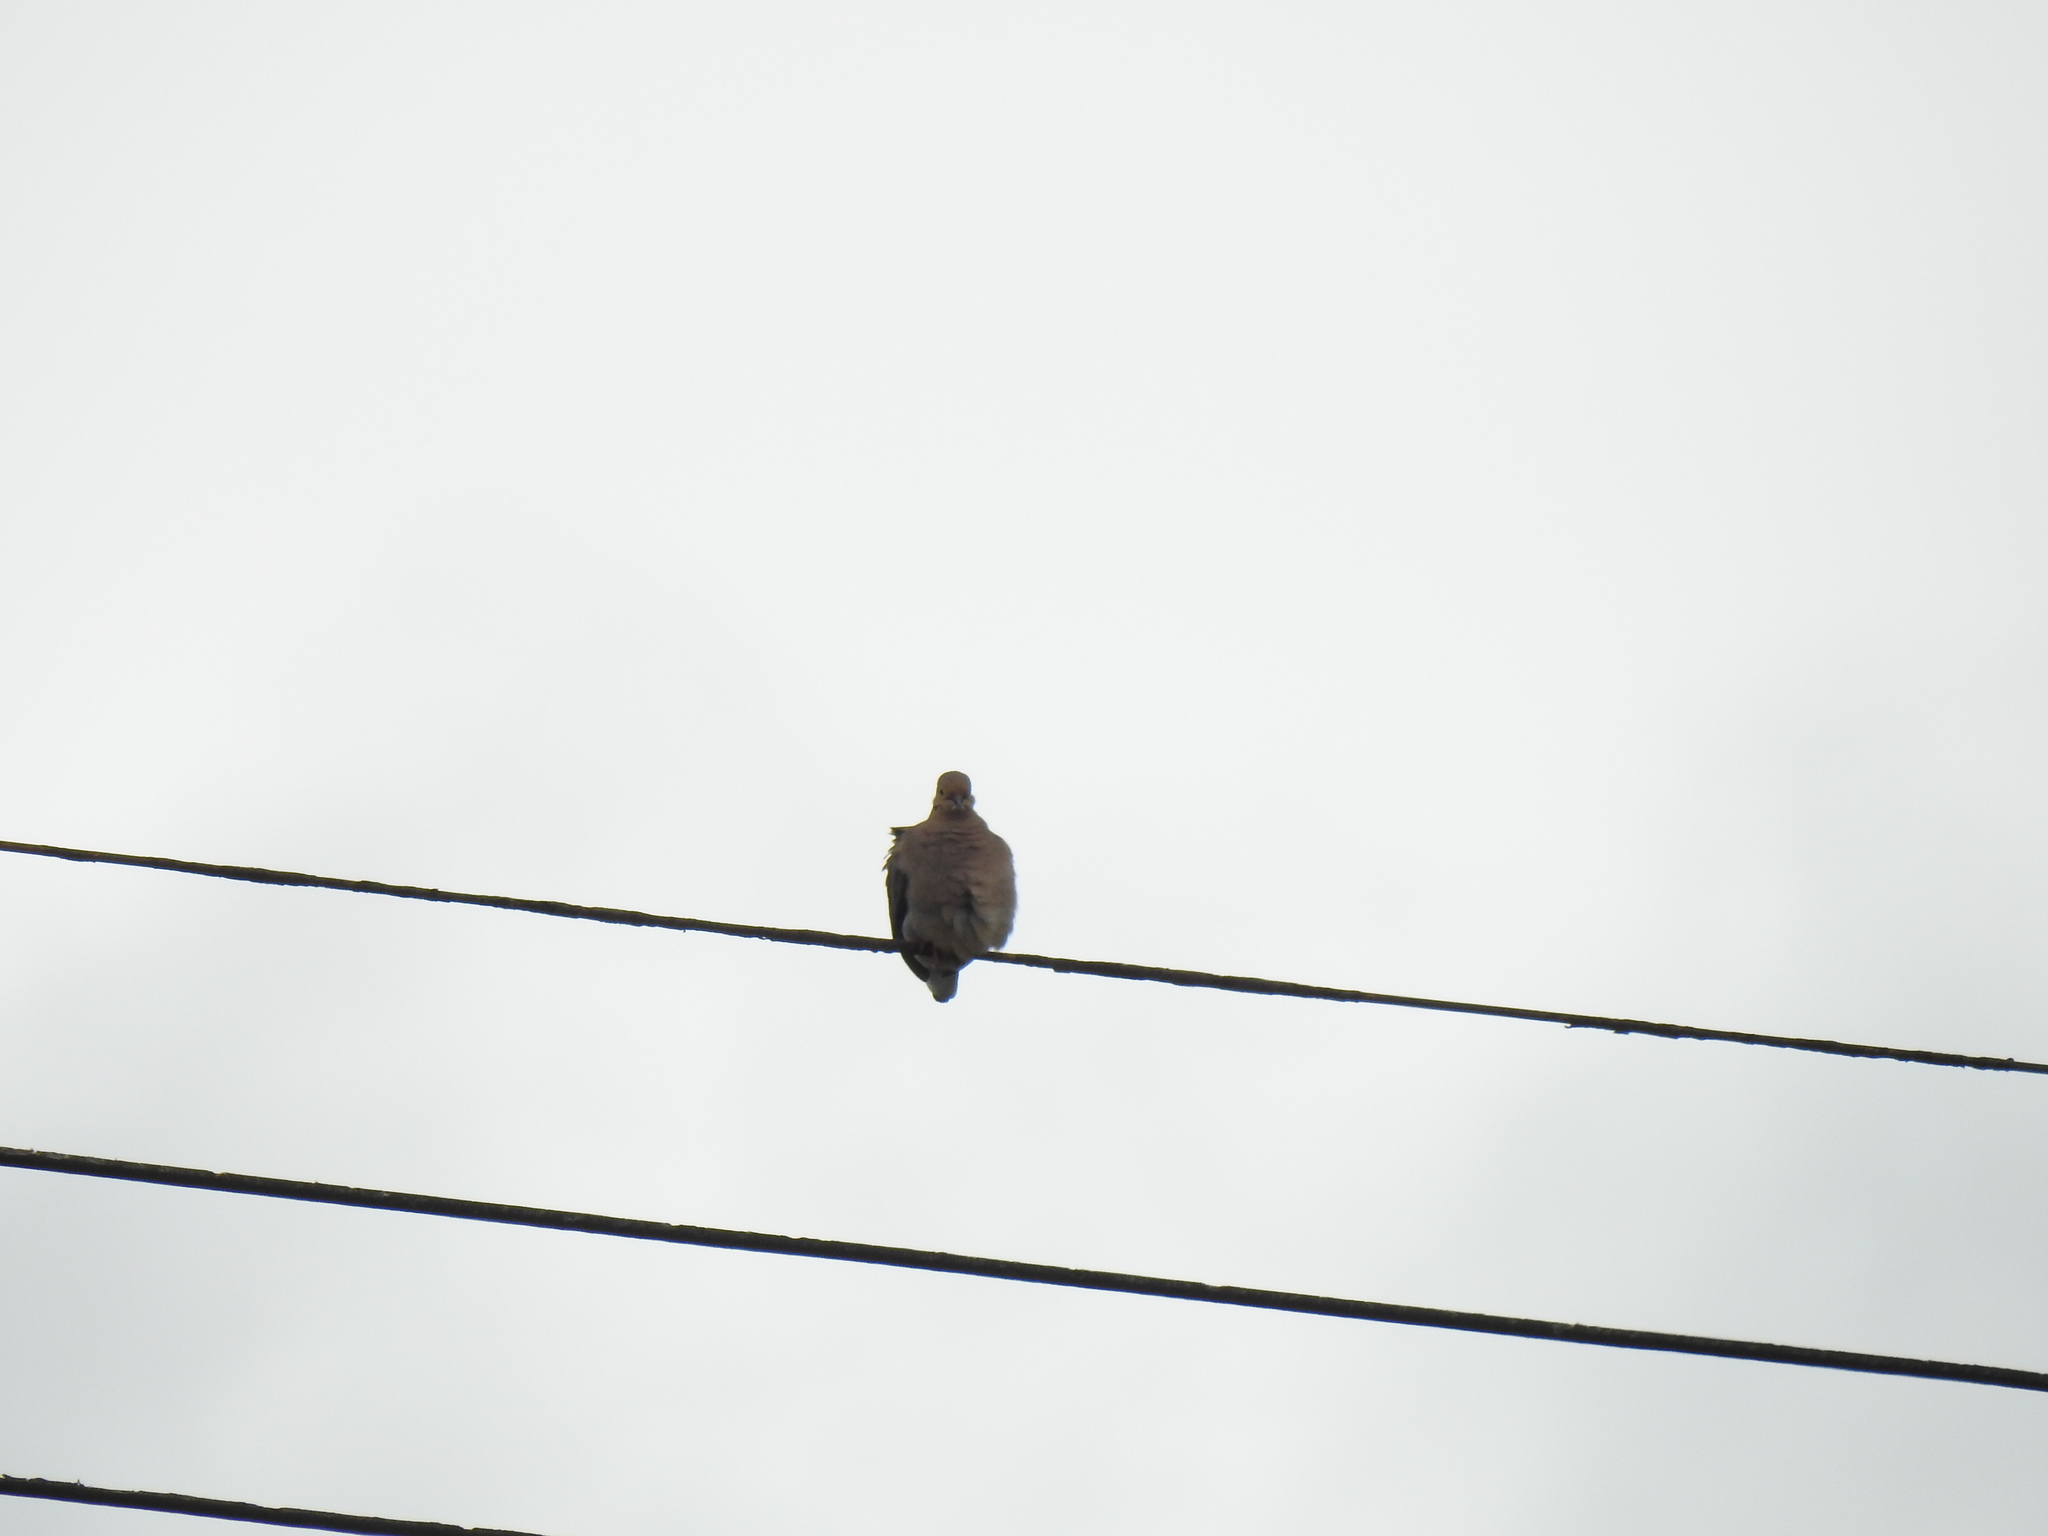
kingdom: Animalia
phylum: Chordata
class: Aves
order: Columbiformes
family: Columbidae
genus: Zenaida
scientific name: Zenaida macroura
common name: Mourning dove
